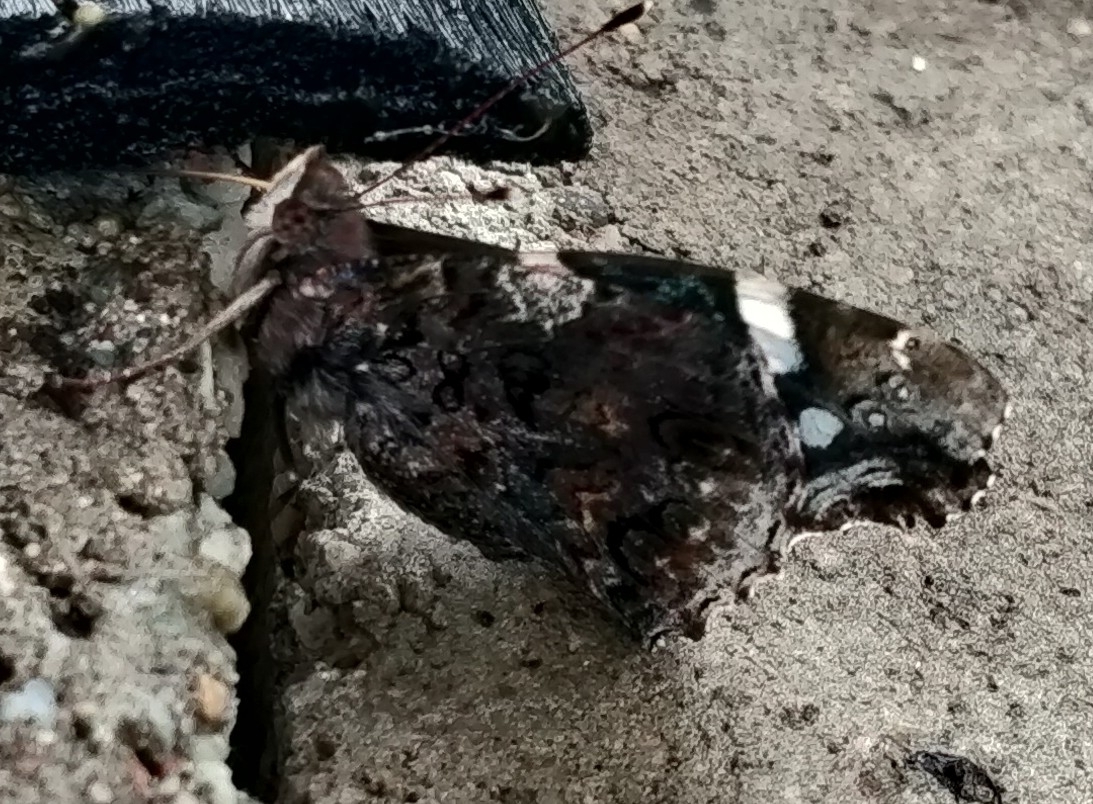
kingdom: Animalia
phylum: Arthropoda
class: Insecta
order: Lepidoptera
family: Nymphalidae
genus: Vanessa
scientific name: Vanessa atalanta
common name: Red admiral
